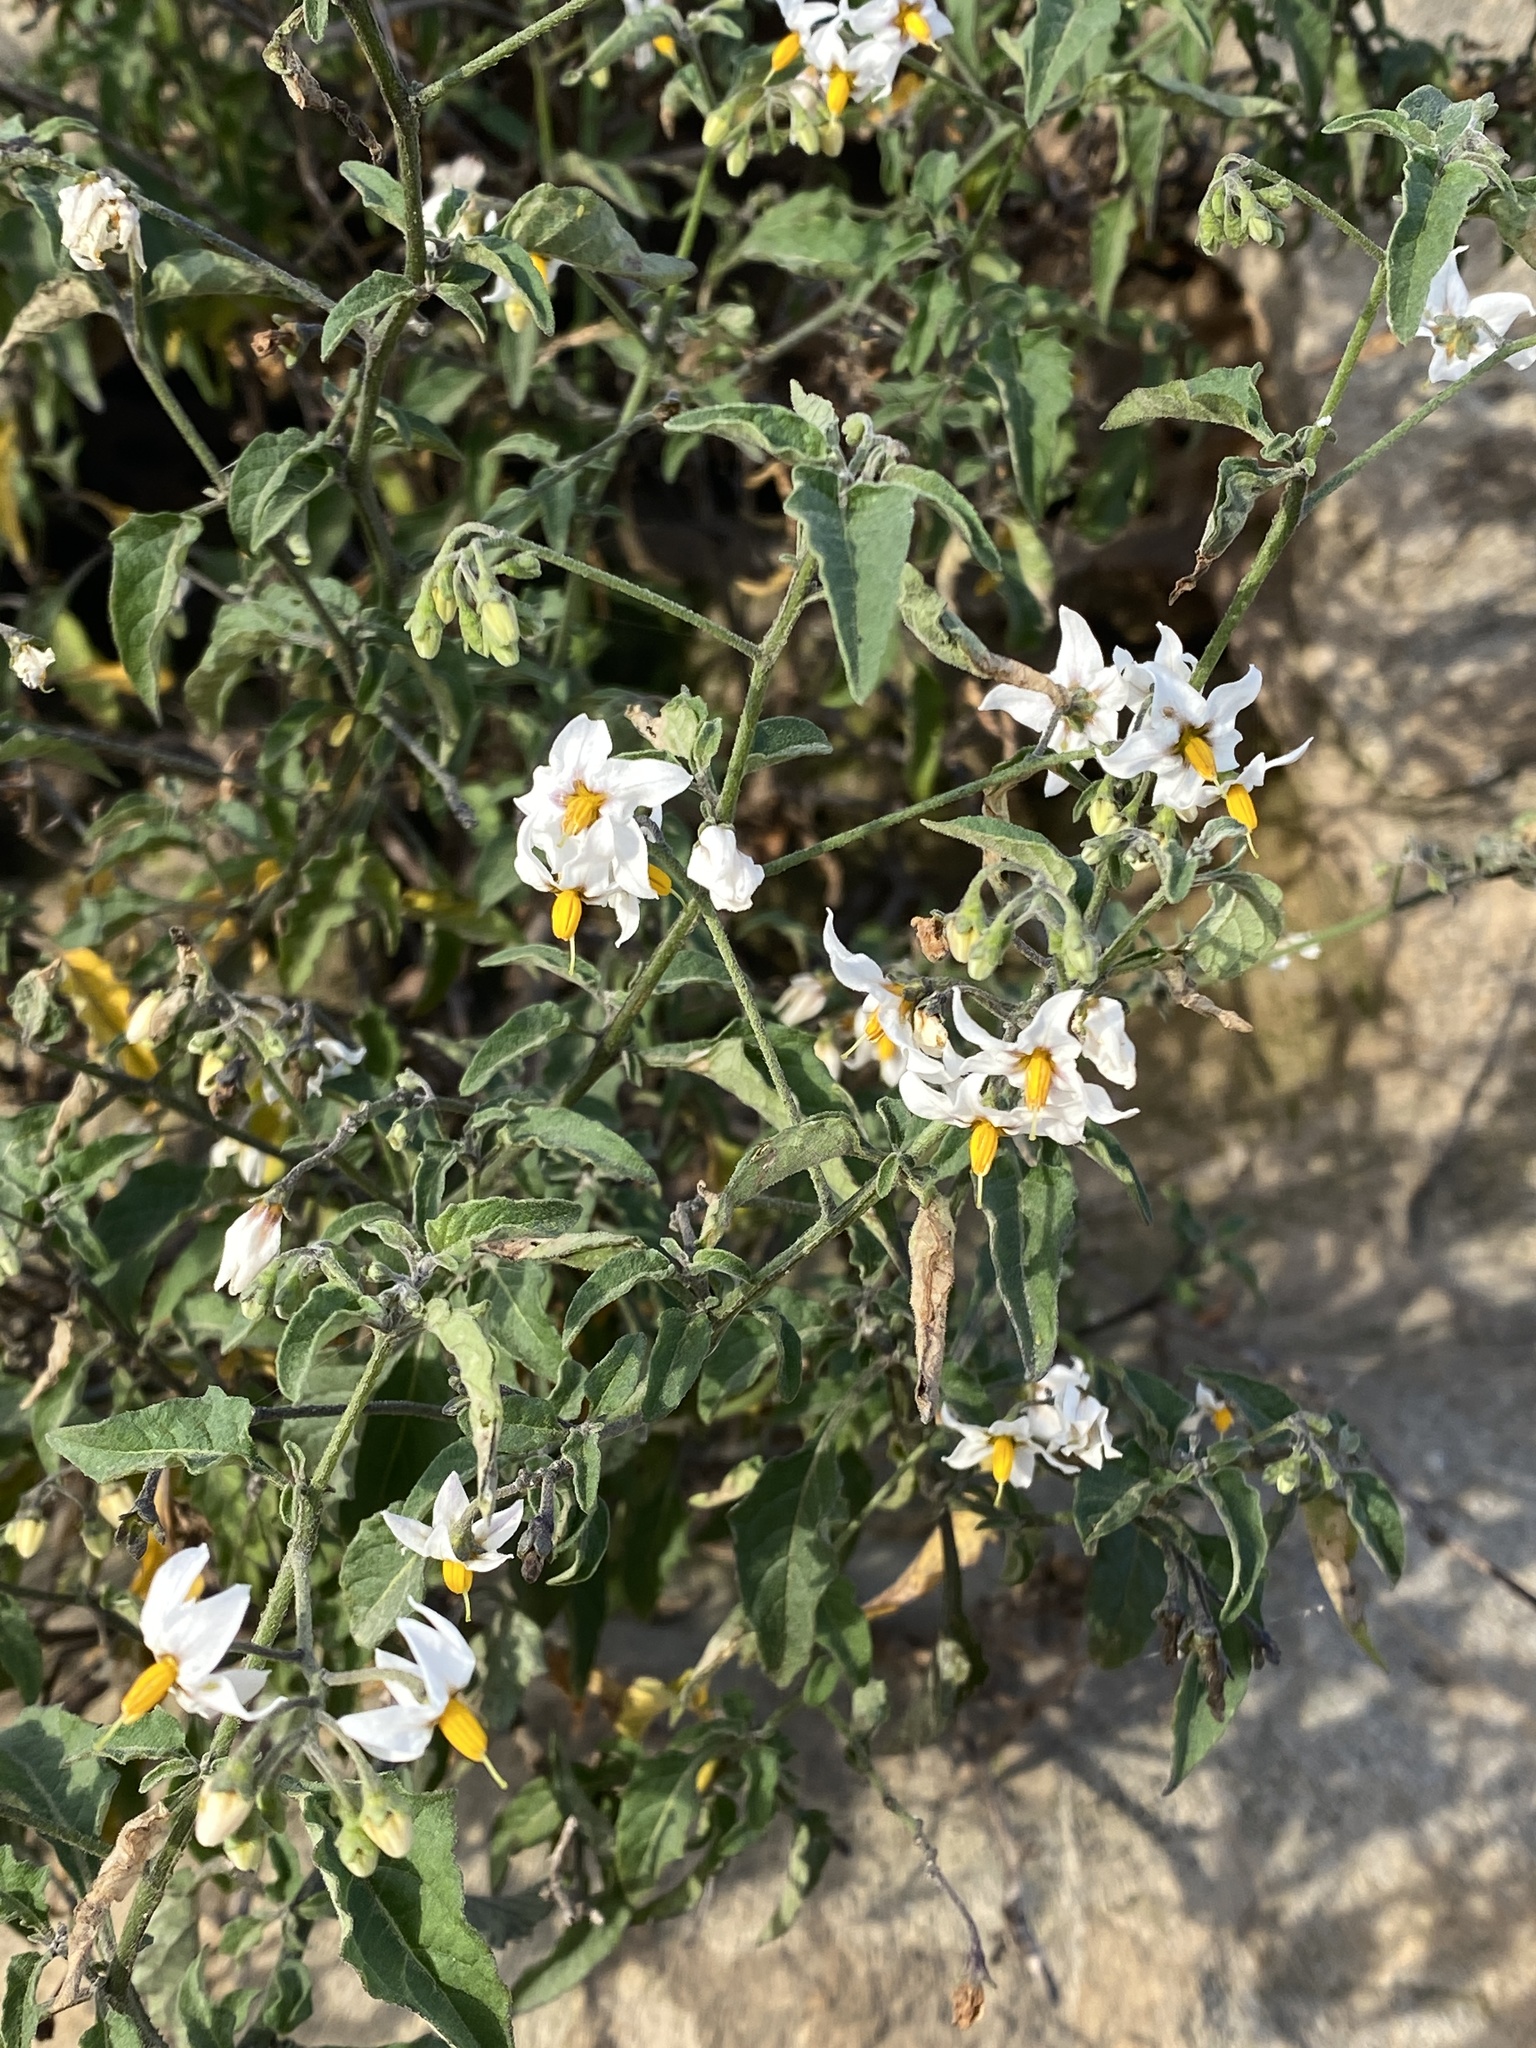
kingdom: Plantae
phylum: Tracheophyta
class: Magnoliopsida
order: Solanales
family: Solanaceae
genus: Solanum
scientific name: Solanum douglasii
